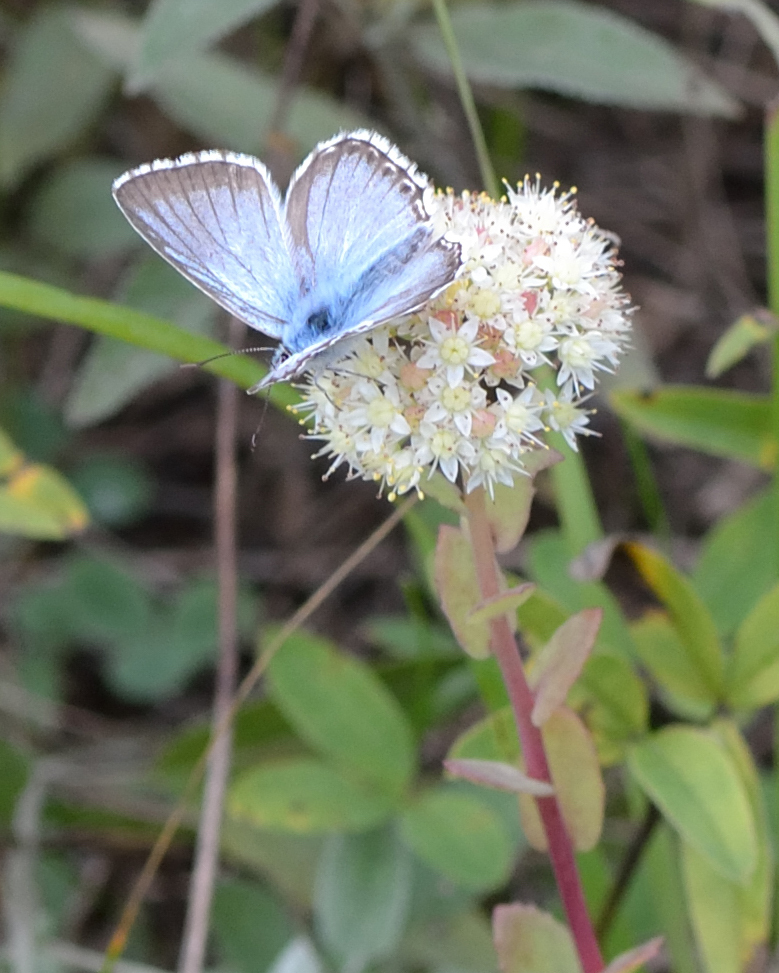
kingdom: Animalia
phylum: Arthropoda
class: Insecta
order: Lepidoptera
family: Lycaenidae
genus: Lysandra
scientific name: Lysandra coridon
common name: Chalkhill blue
